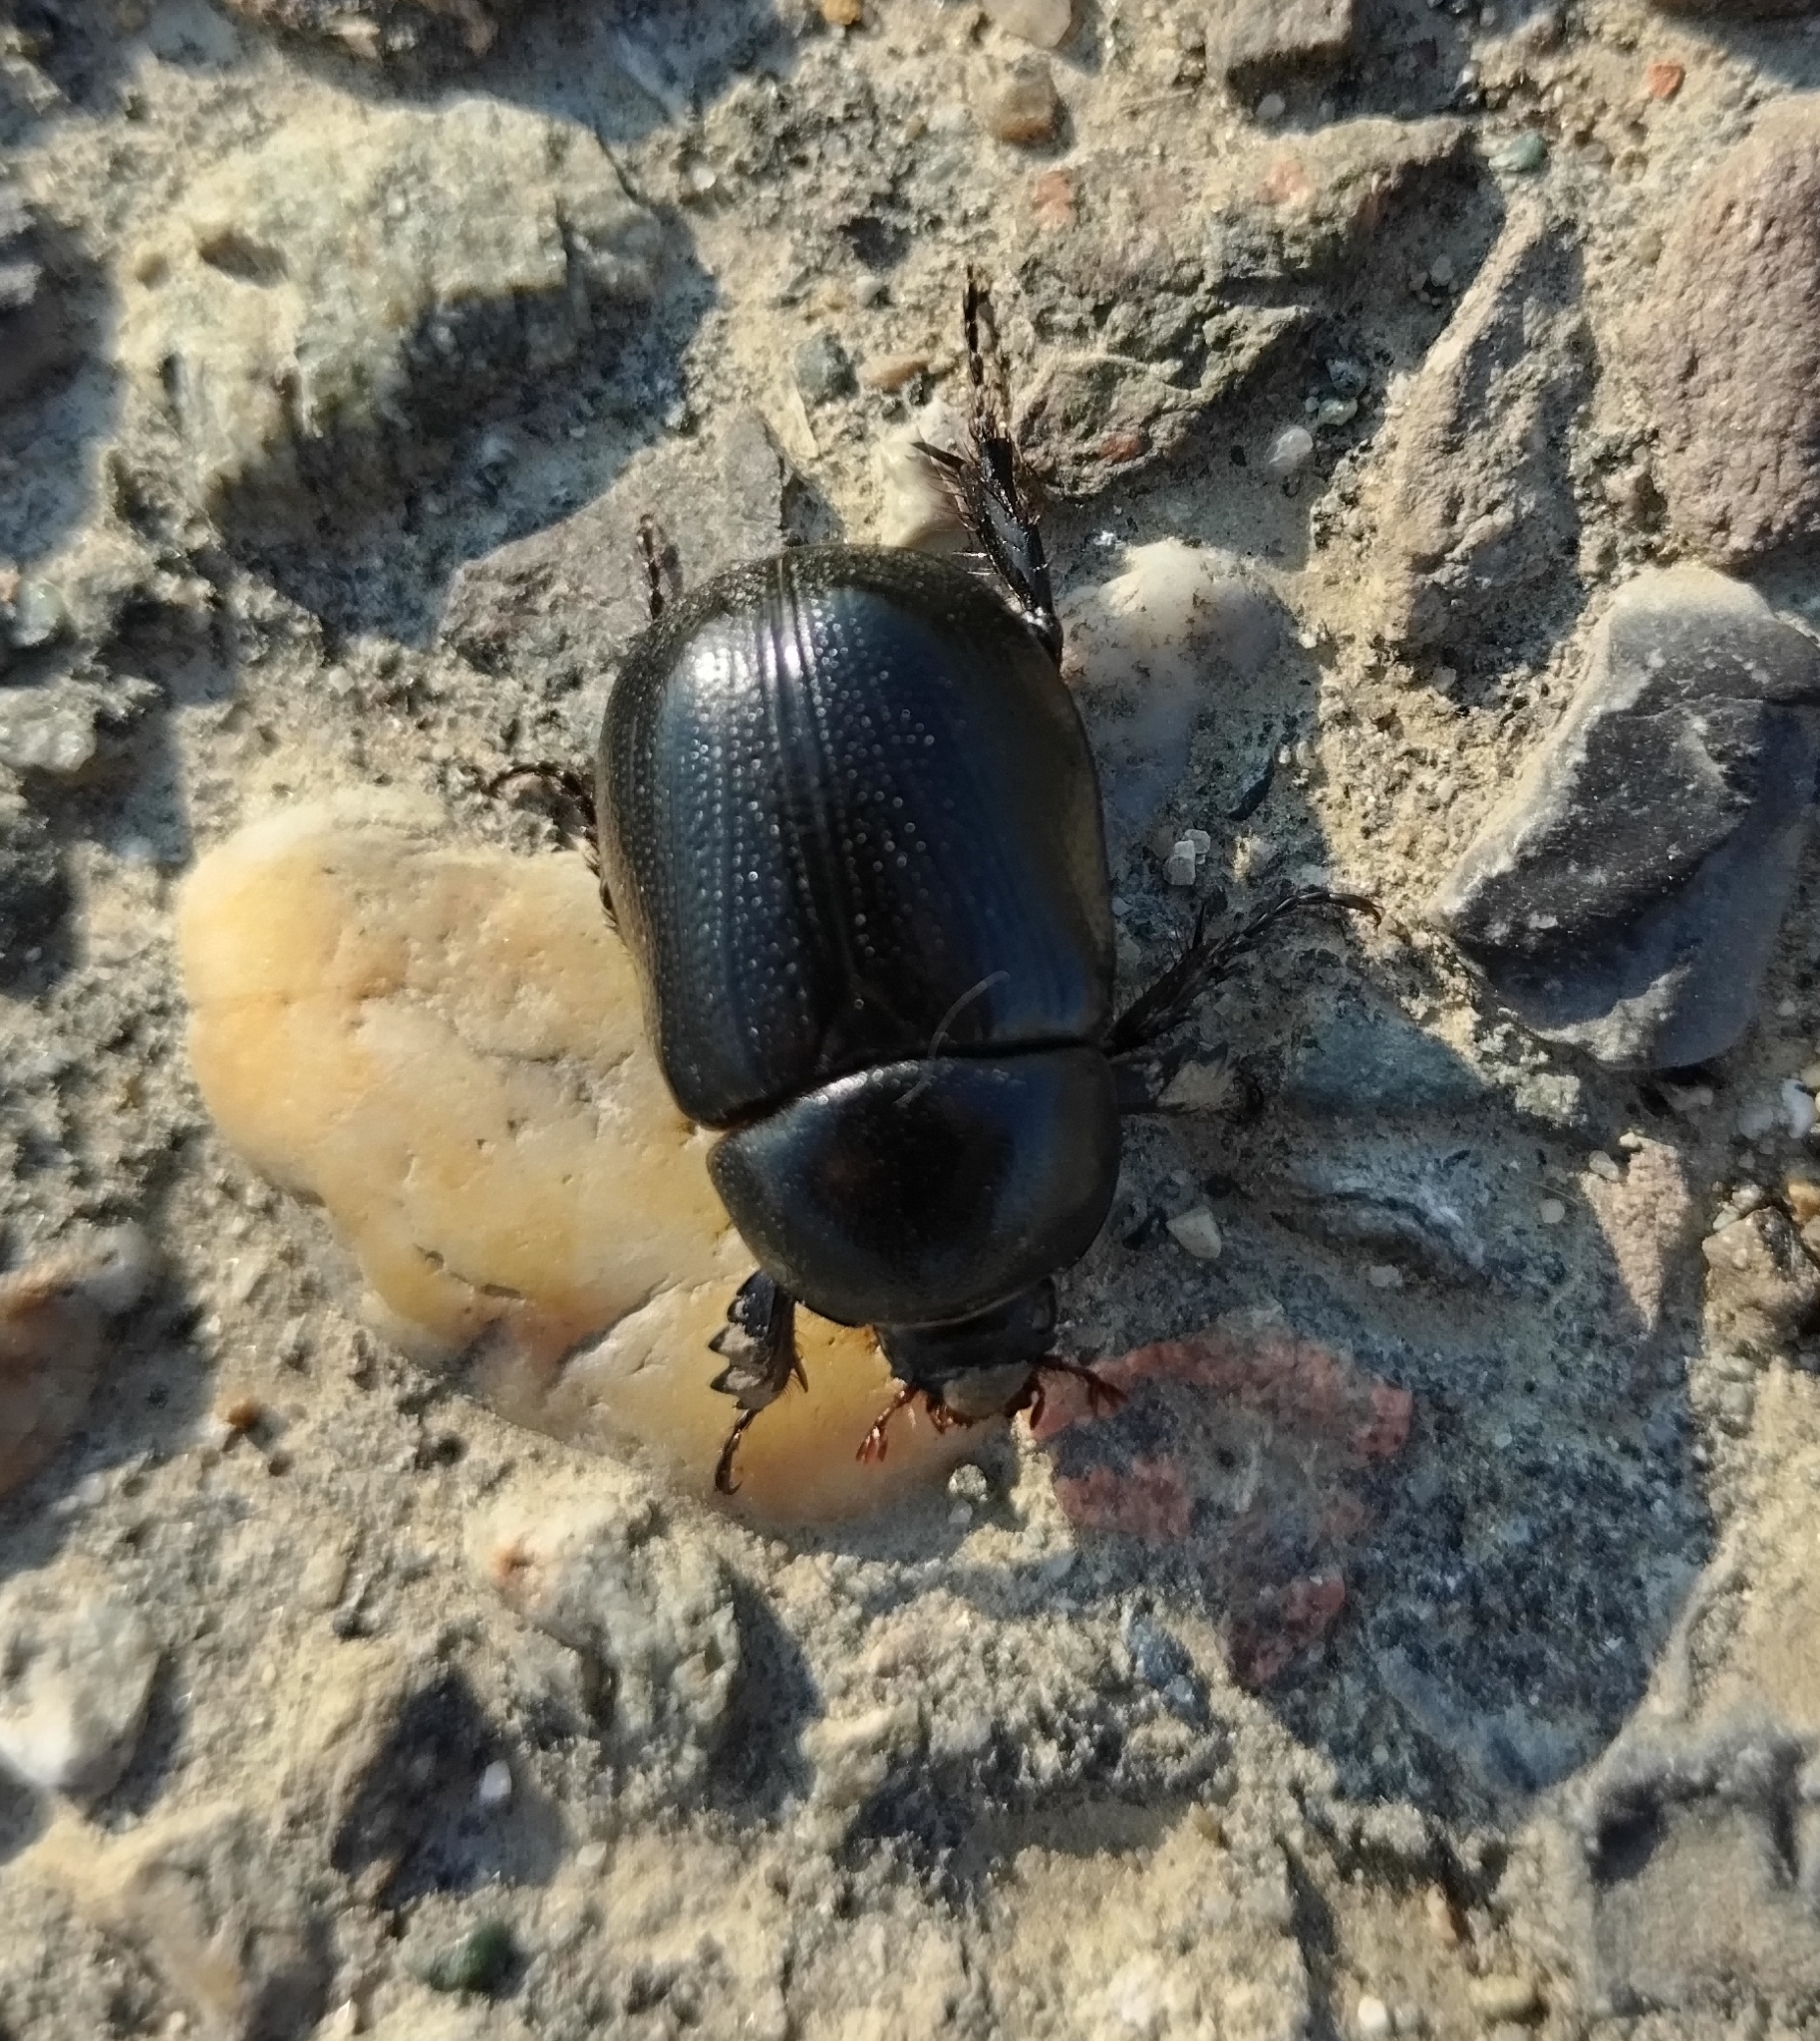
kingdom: Animalia
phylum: Arthropoda
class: Insecta
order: Coleoptera
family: Scarabaeidae
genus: Pentodon
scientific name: Pentodon bidens
